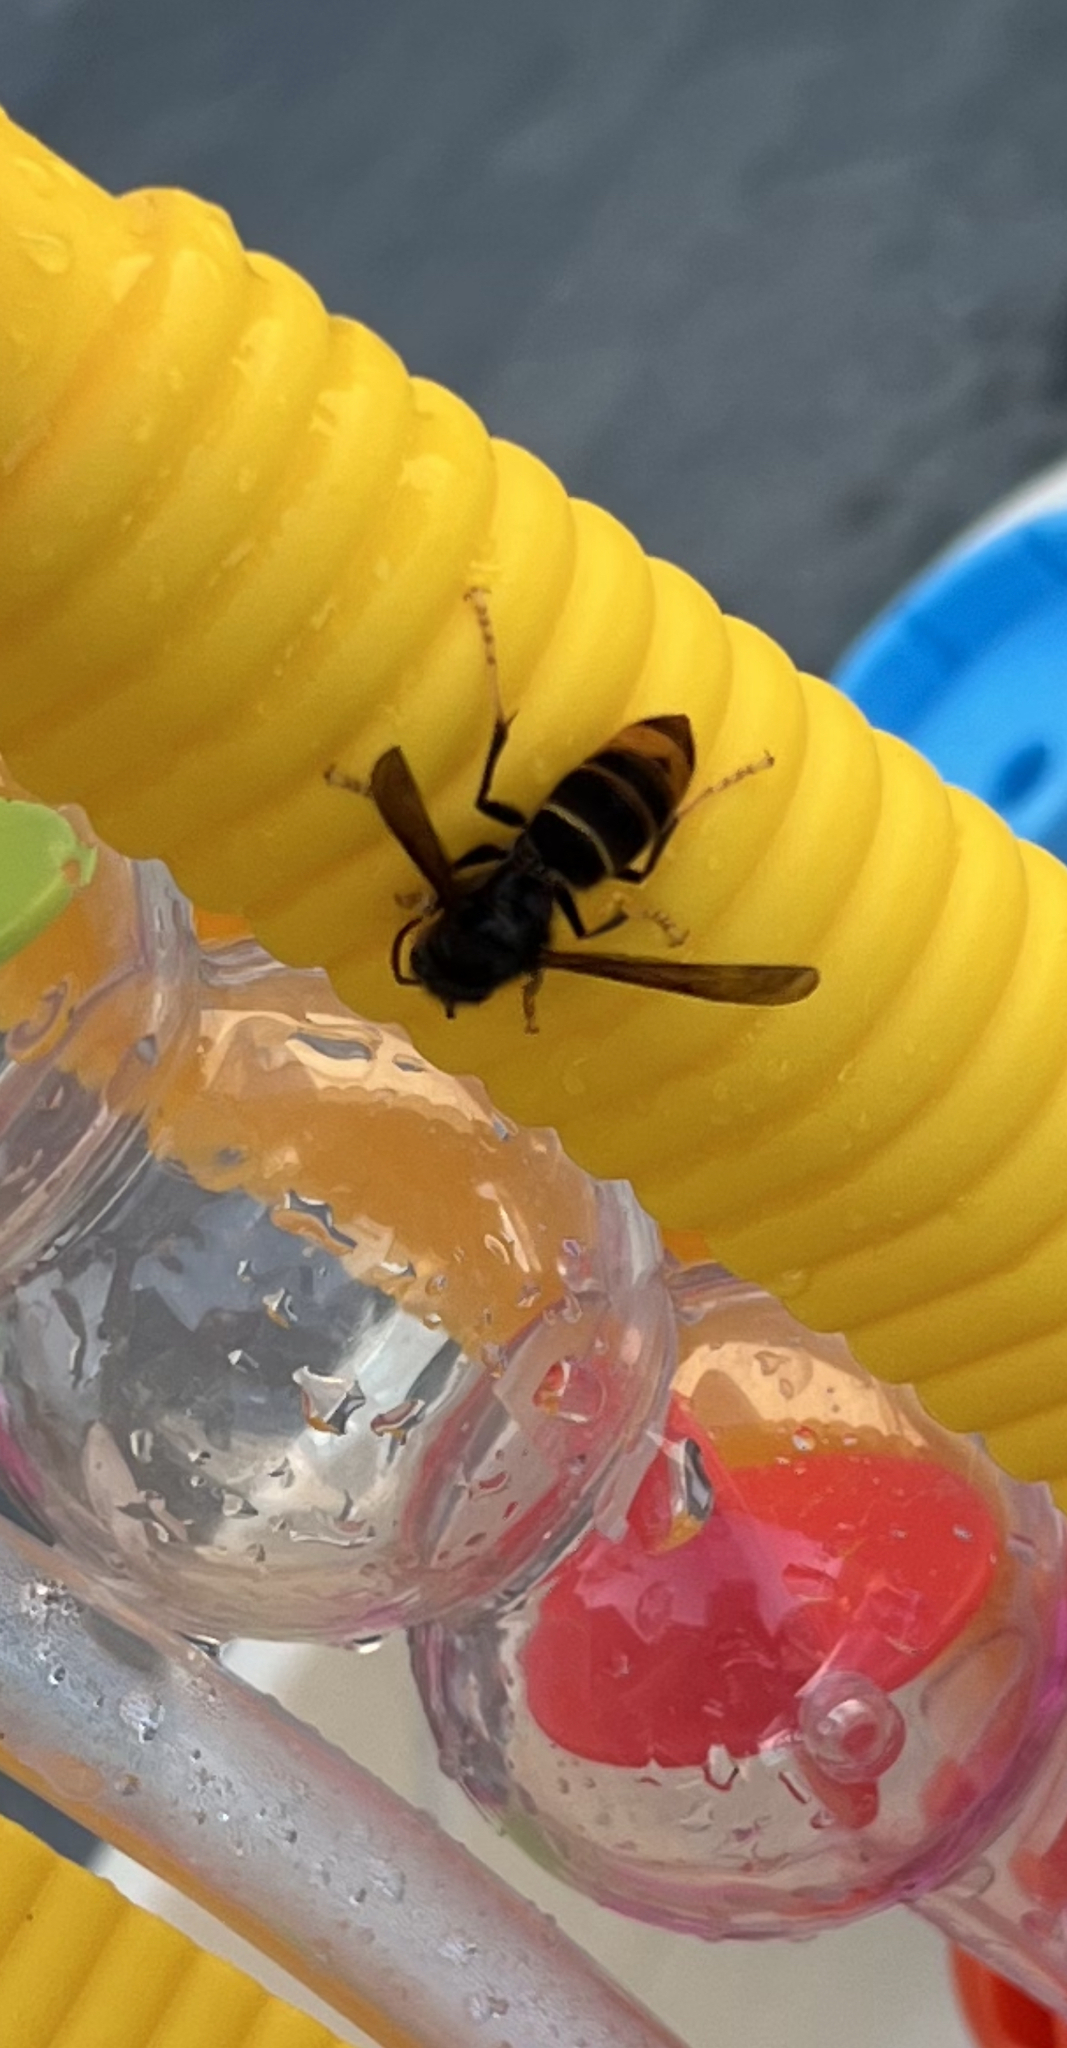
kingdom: Animalia
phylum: Arthropoda
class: Insecta
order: Hymenoptera
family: Vespidae
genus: Vespa
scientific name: Vespa velutina
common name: Asian hornet
